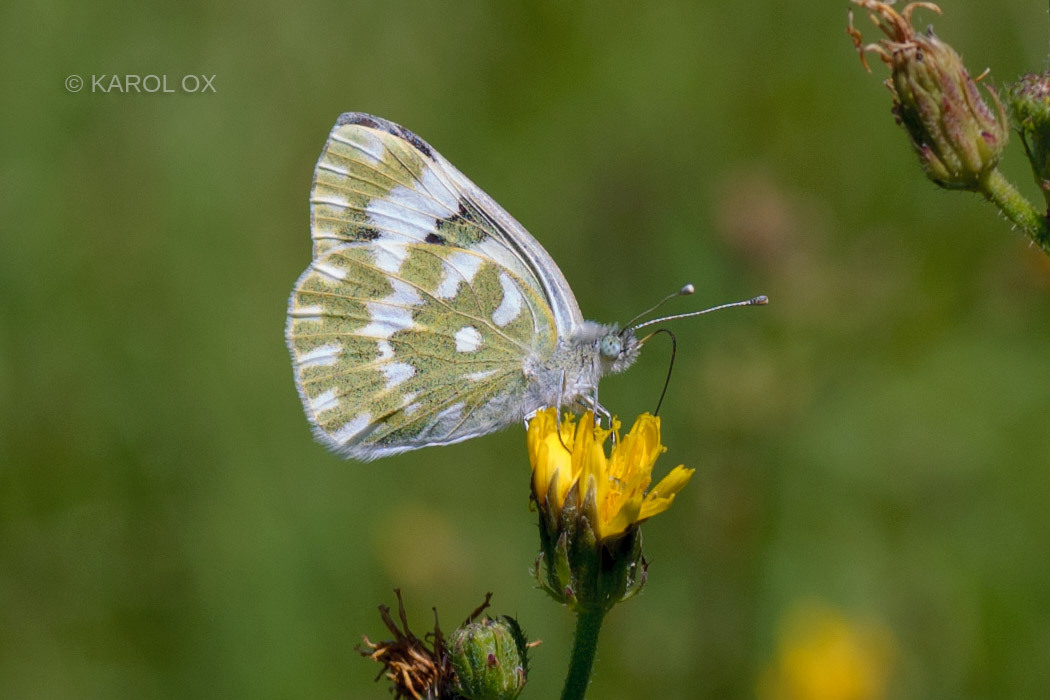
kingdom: Animalia
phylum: Arthropoda
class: Insecta
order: Lepidoptera
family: Pieridae
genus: Pontia
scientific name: Pontia edusa
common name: Eastern bath white
